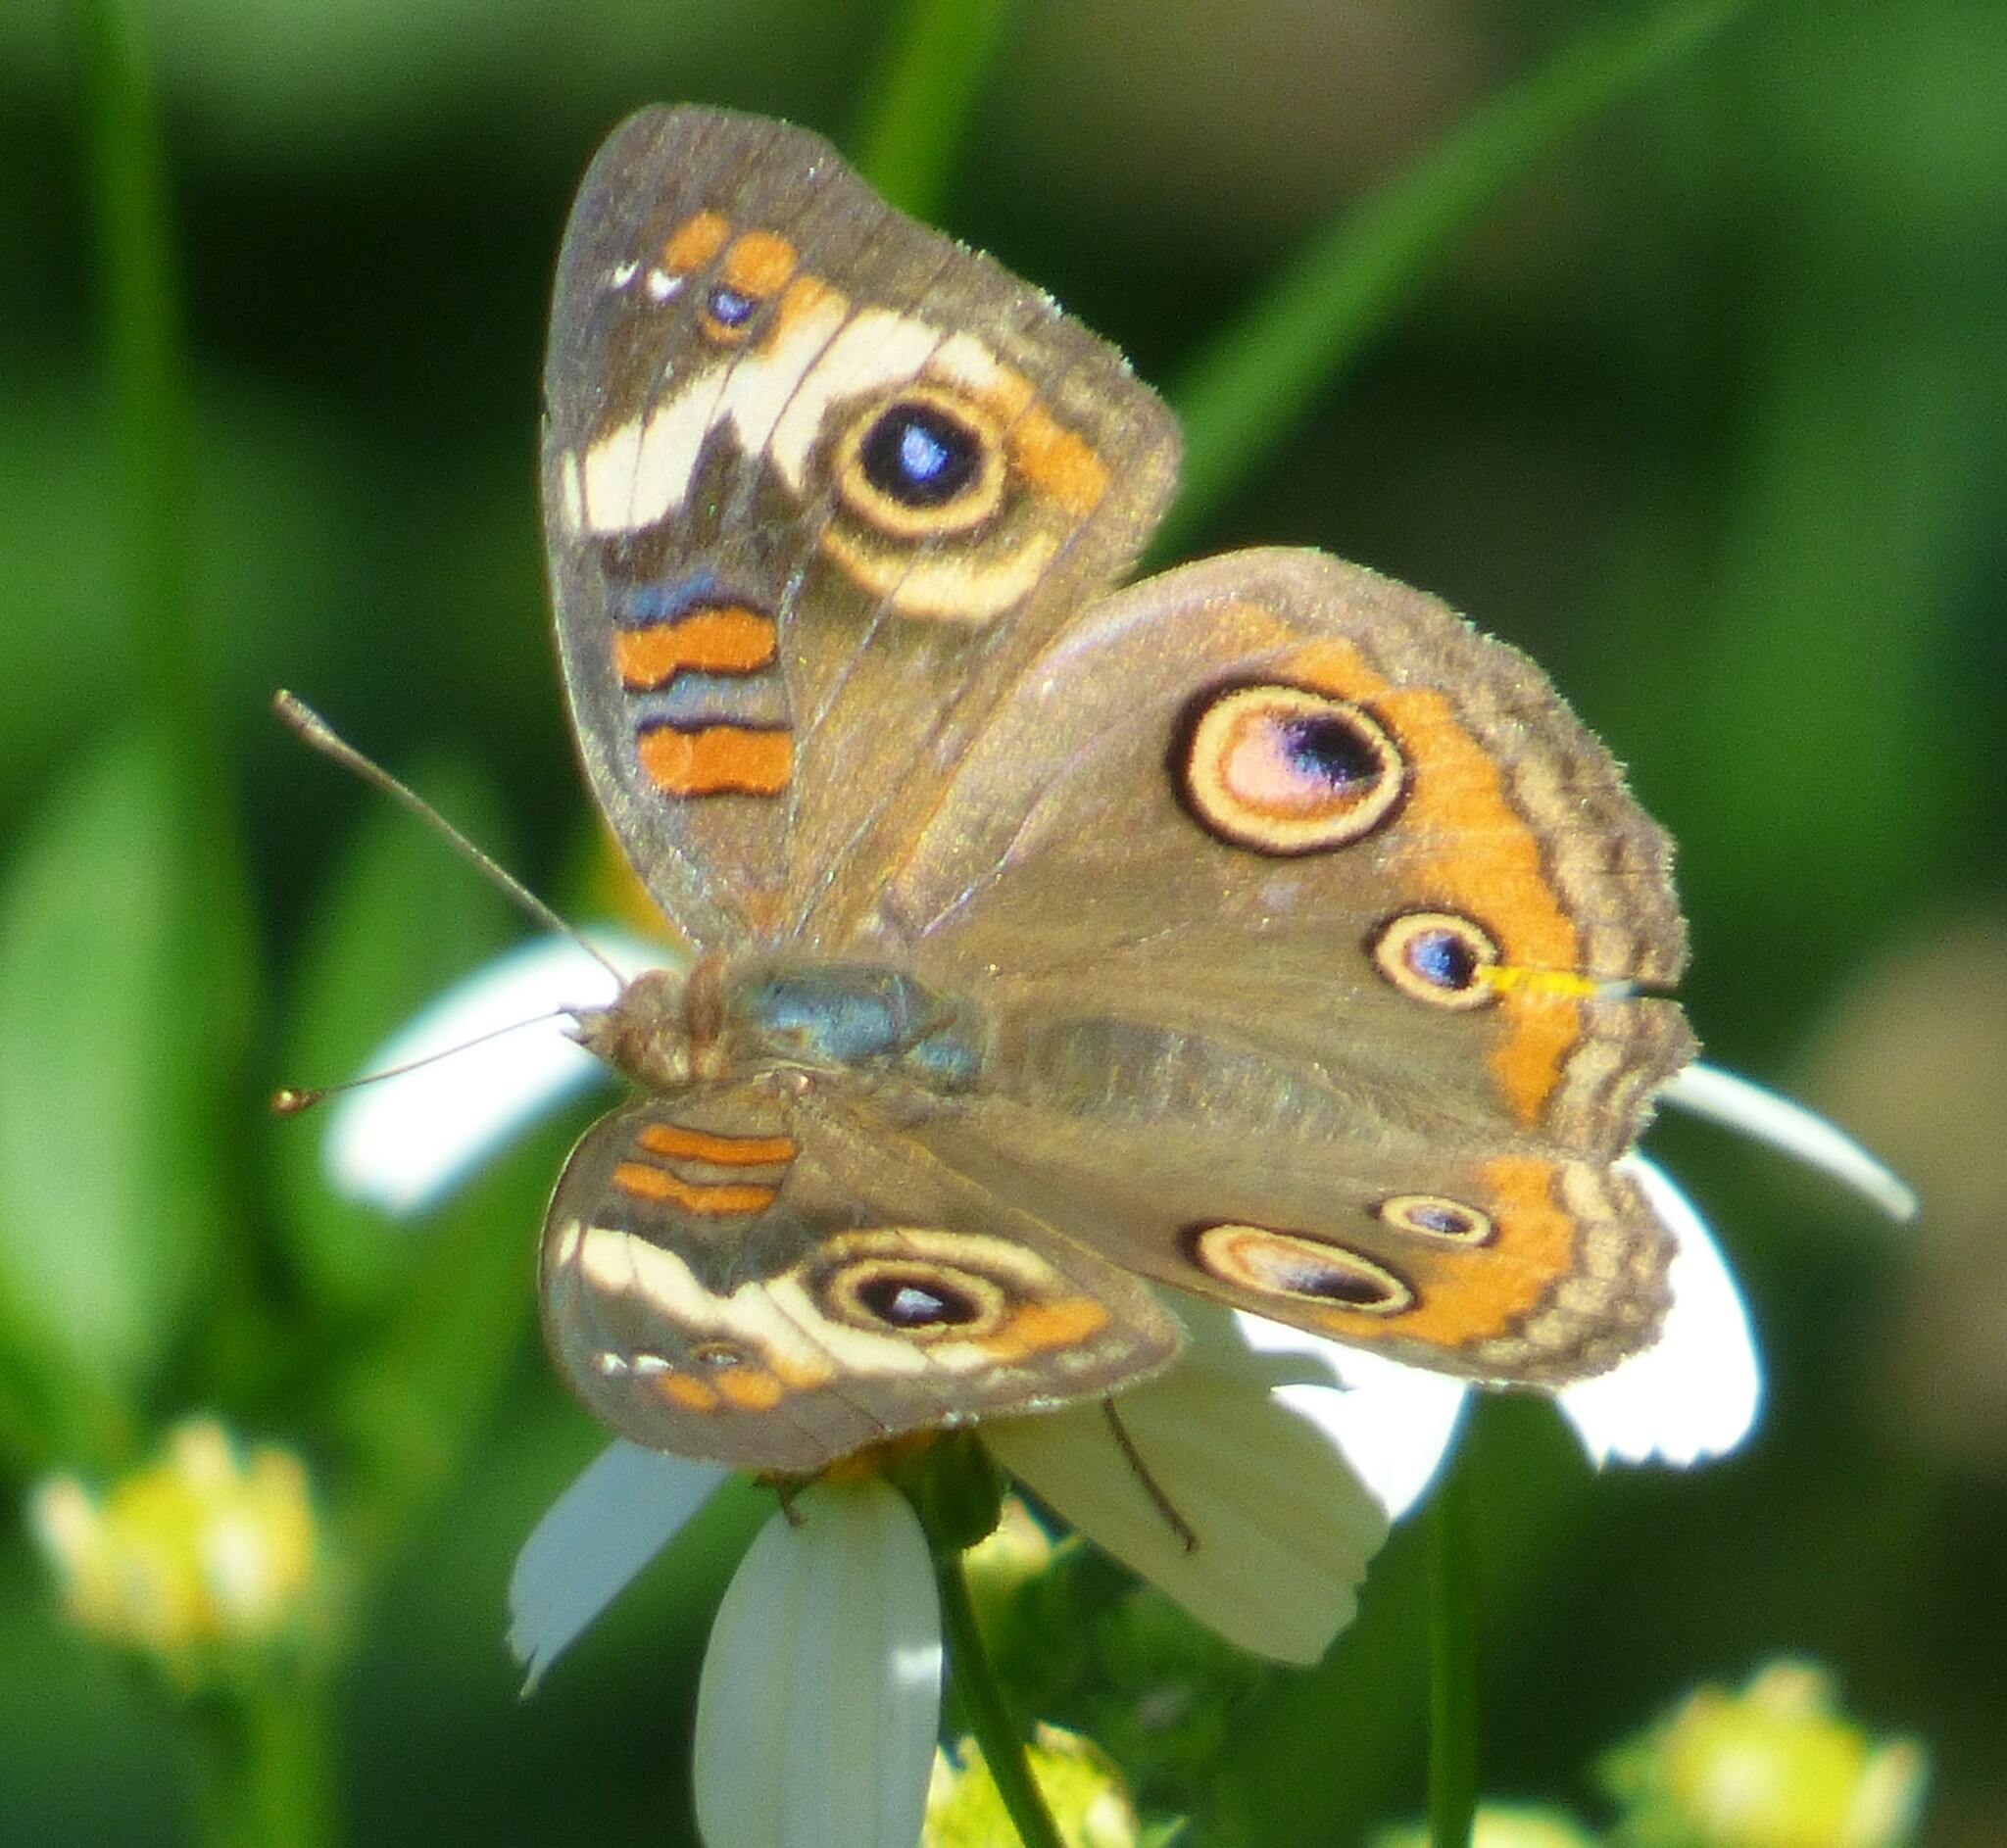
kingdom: Animalia
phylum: Arthropoda
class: Insecta
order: Lepidoptera
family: Nymphalidae
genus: Junonia
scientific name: Junonia coenia
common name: Common buckeye
